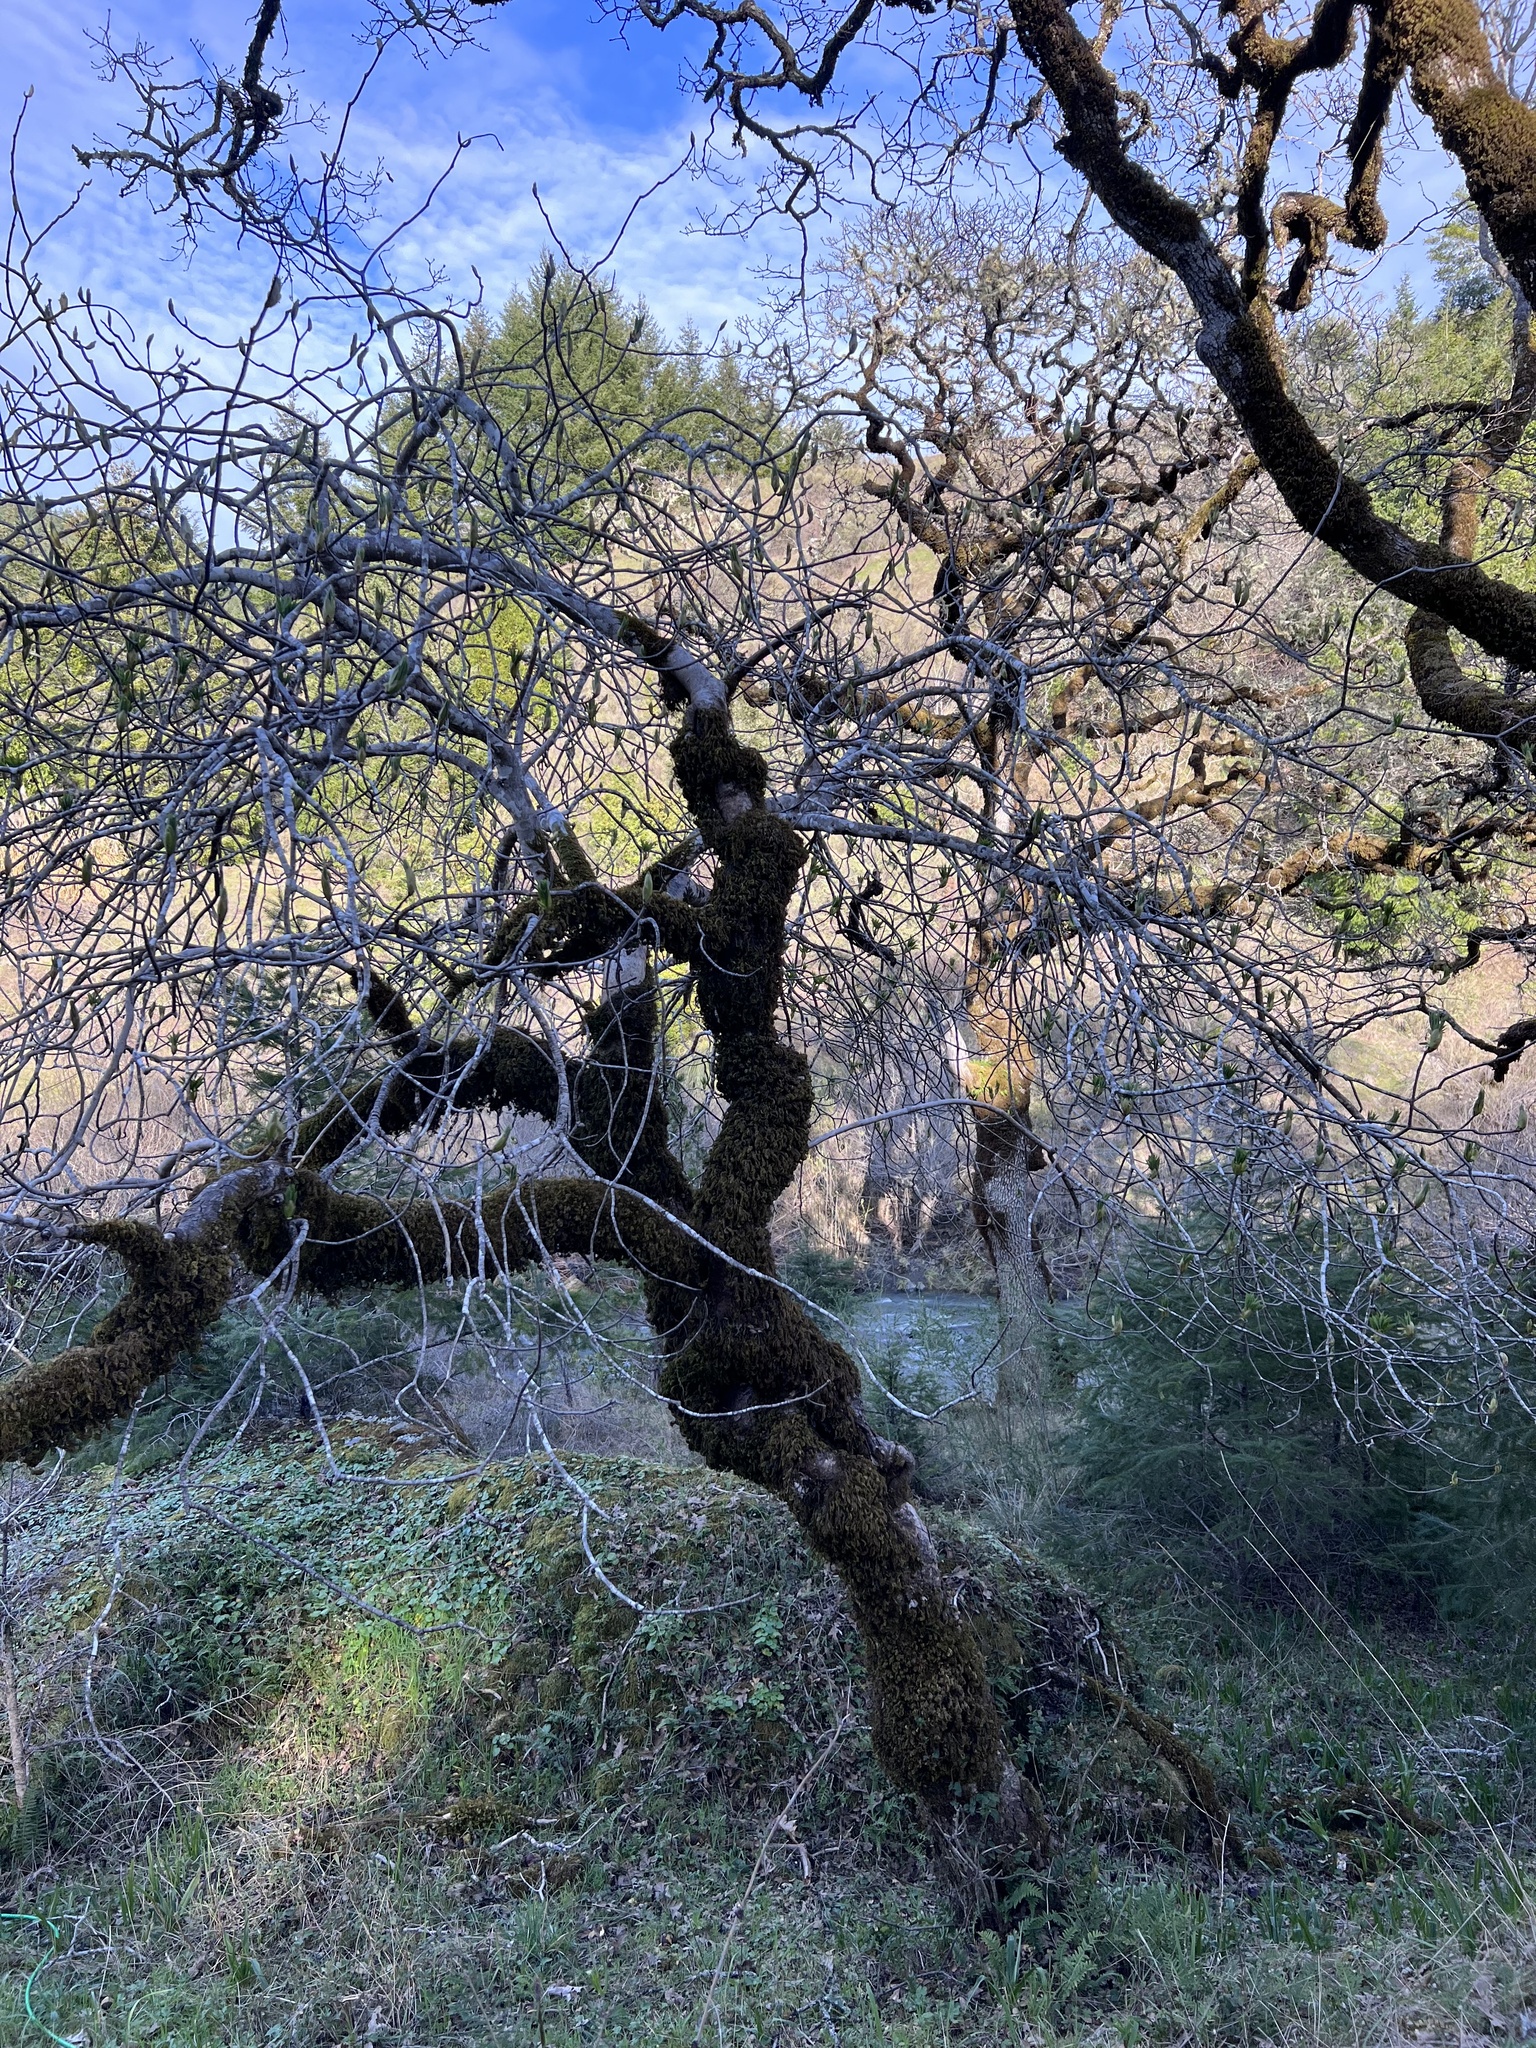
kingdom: Plantae
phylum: Tracheophyta
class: Magnoliopsida
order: Sapindales
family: Sapindaceae
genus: Aesculus
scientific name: Aesculus californica
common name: California buckeye
